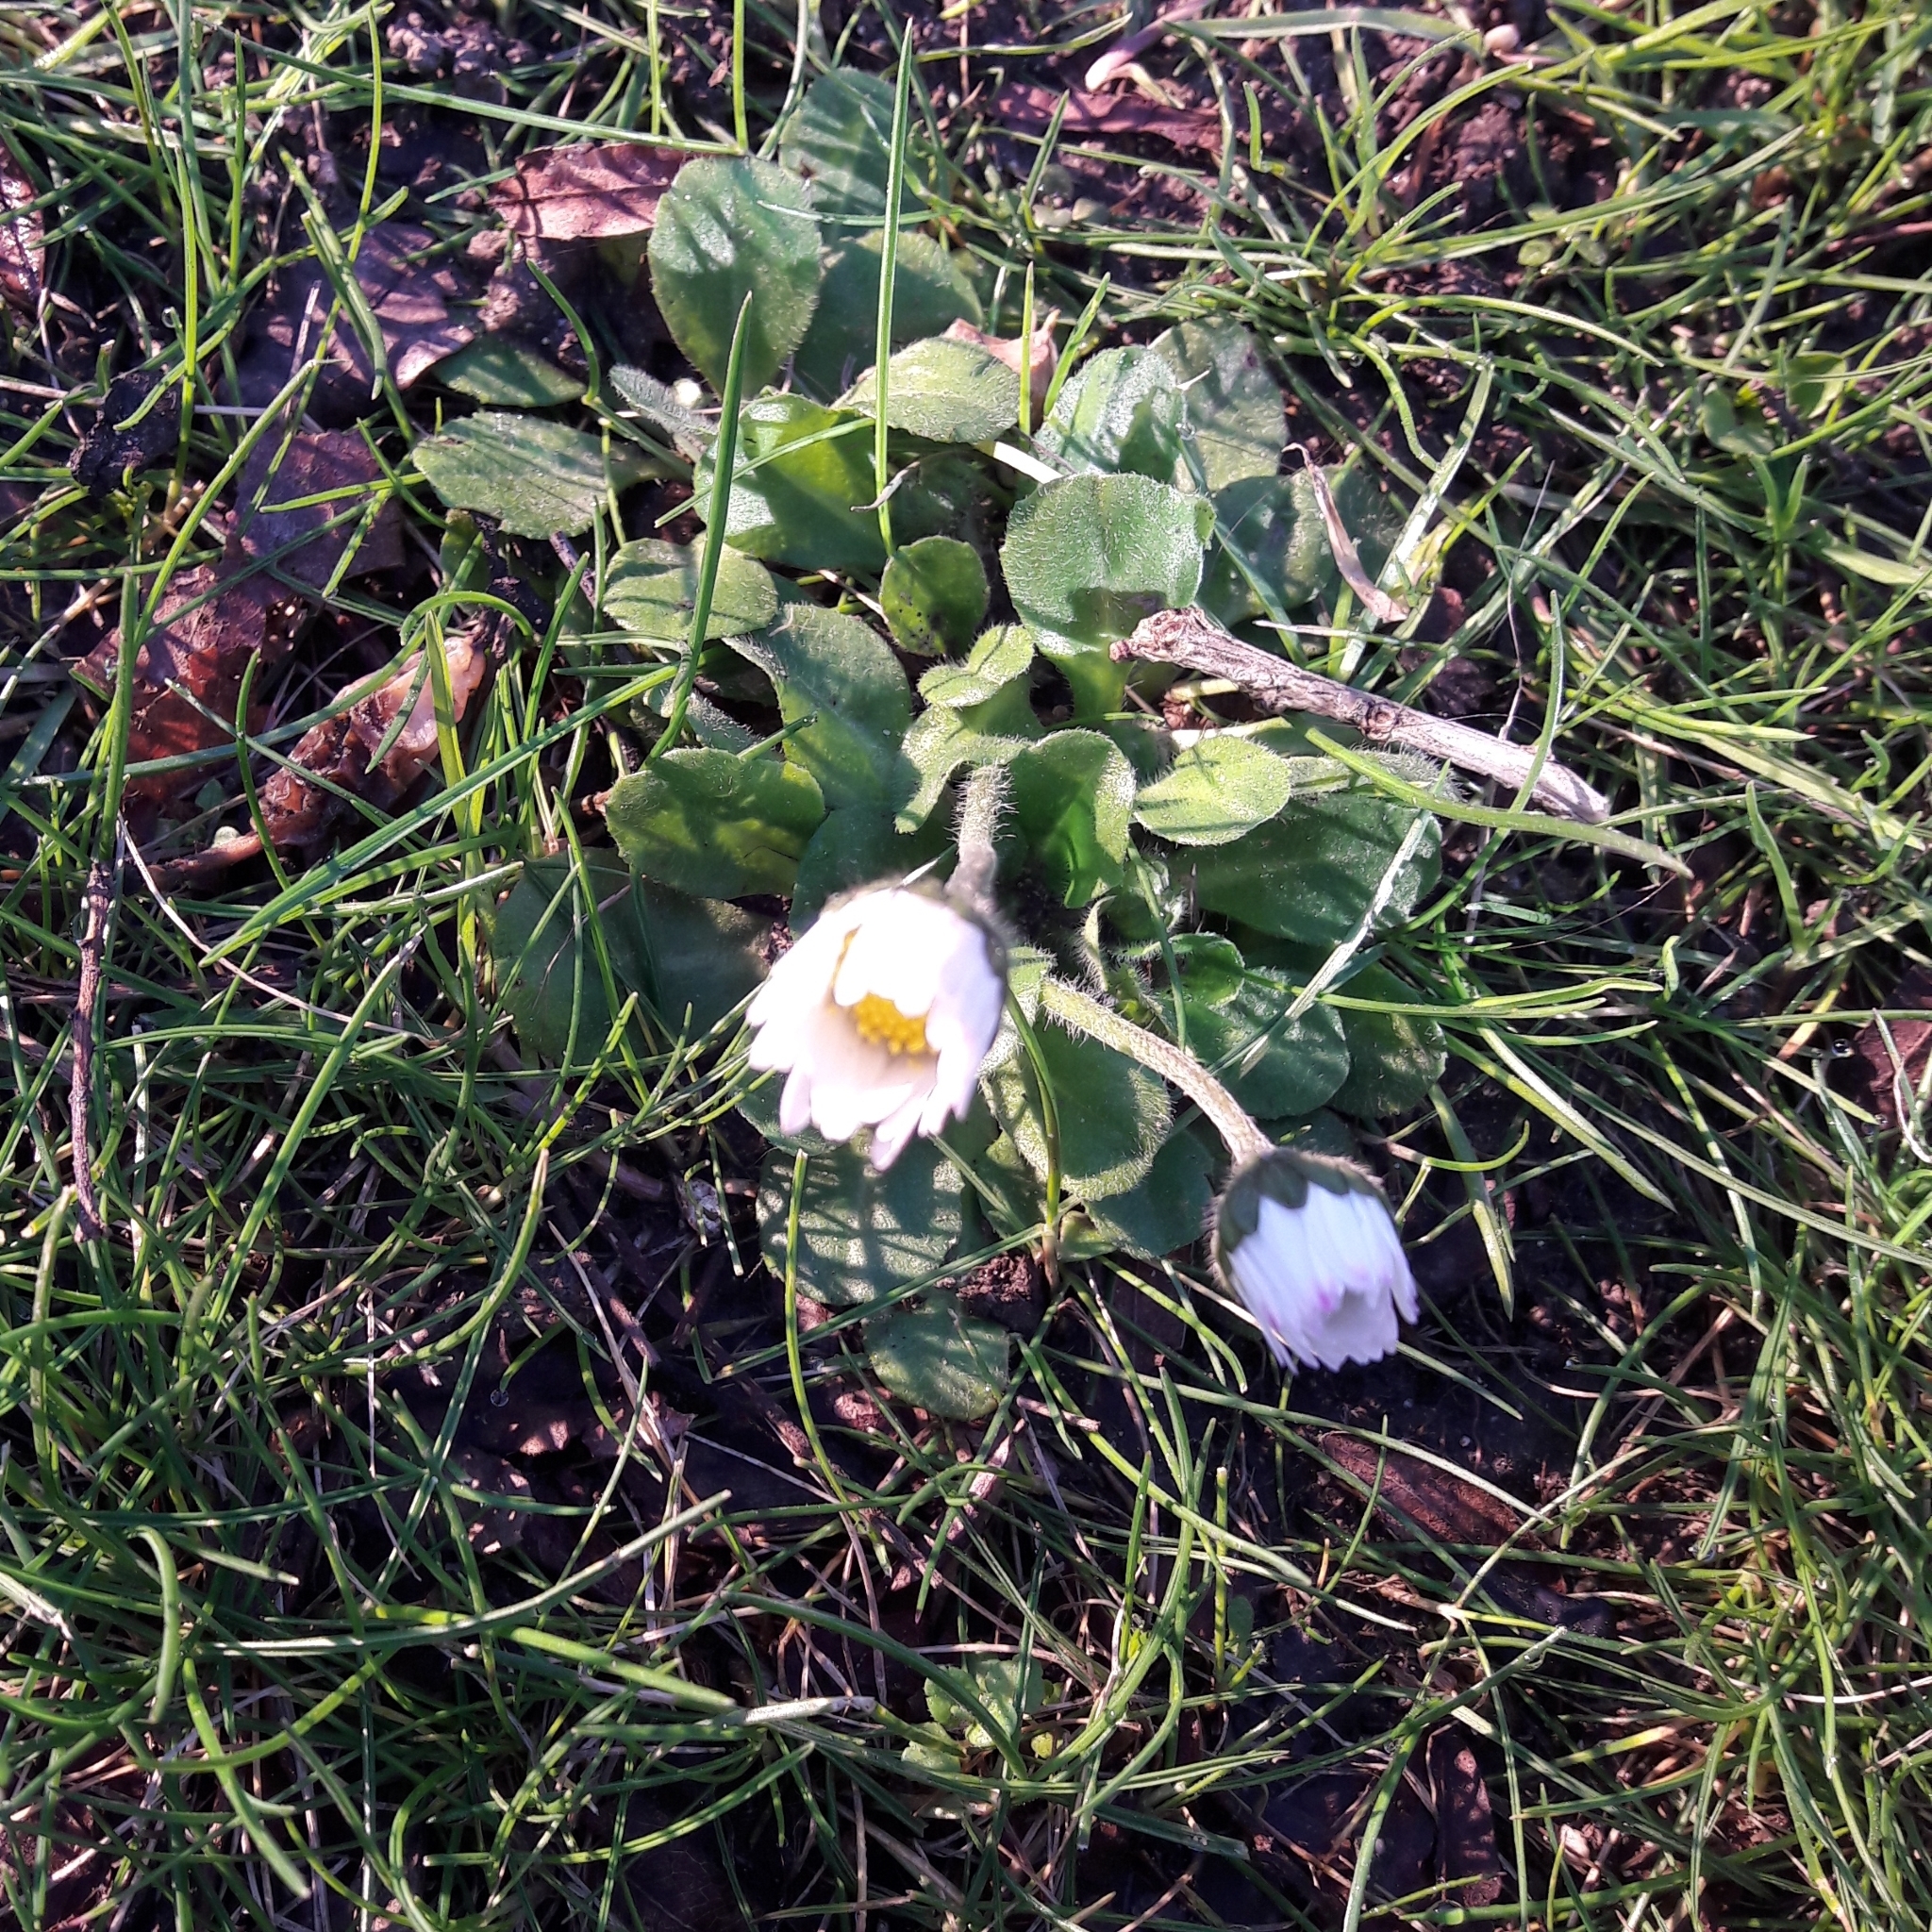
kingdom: Plantae
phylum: Tracheophyta
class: Magnoliopsida
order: Asterales
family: Asteraceae
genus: Bellis
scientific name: Bellis perennis
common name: Lawndaisy
